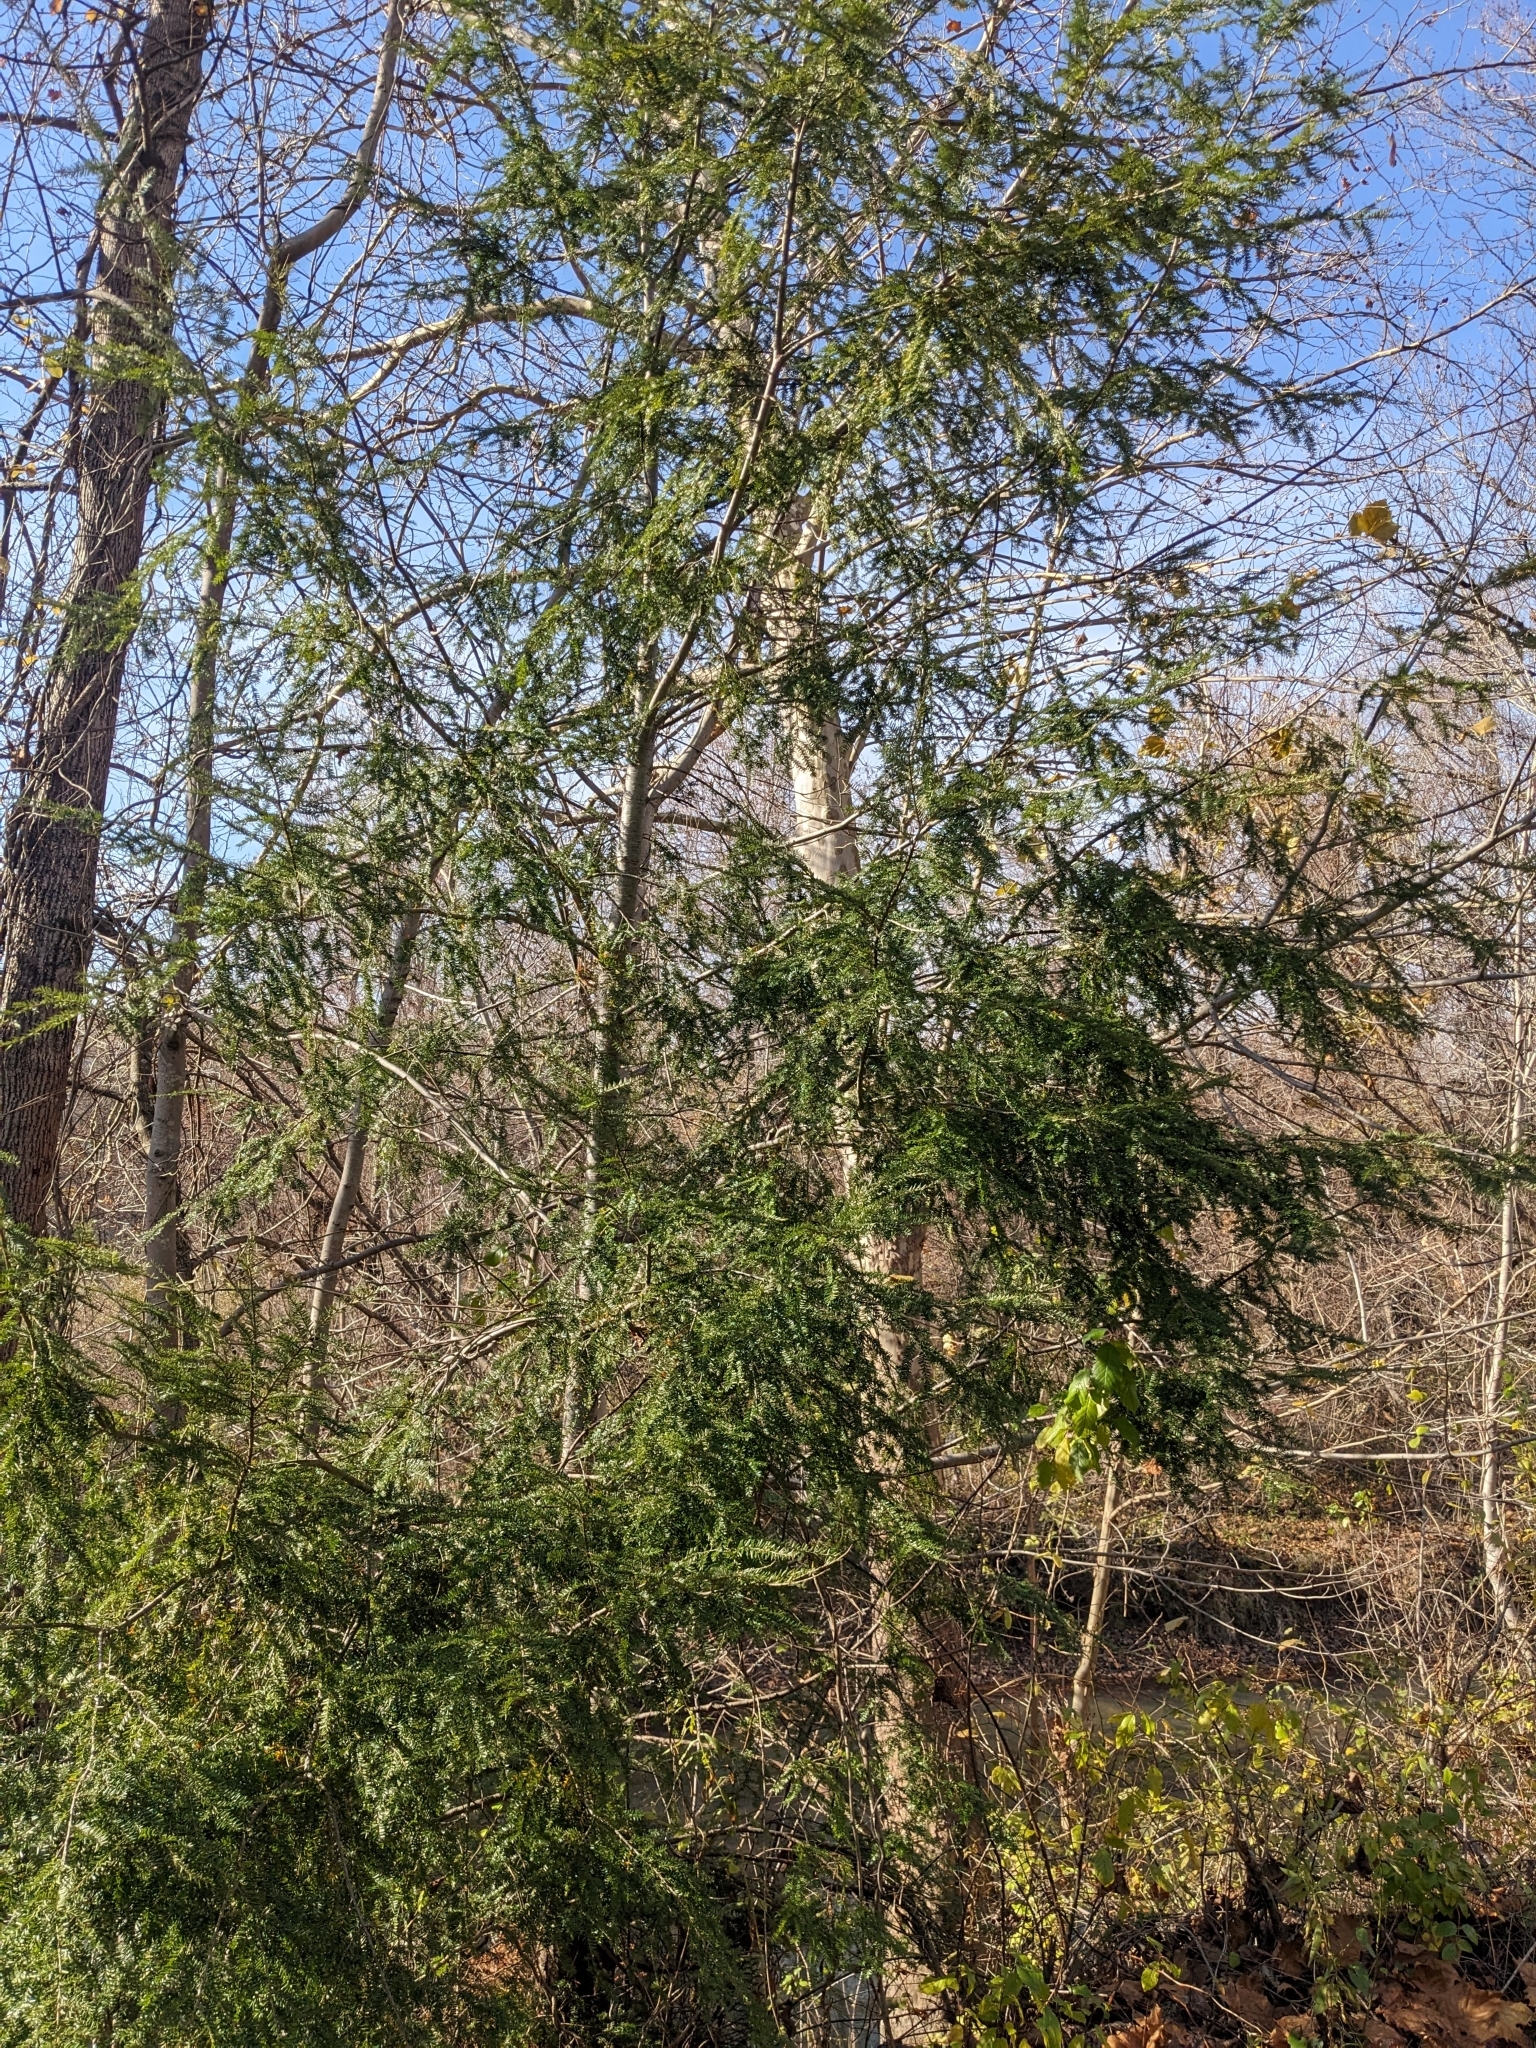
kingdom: Plantae
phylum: Tracheophyta
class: Pinopsida
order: Pinales
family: Pinaceae
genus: Tsuga
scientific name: Tsuga canadensis
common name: Eastern hemlock
